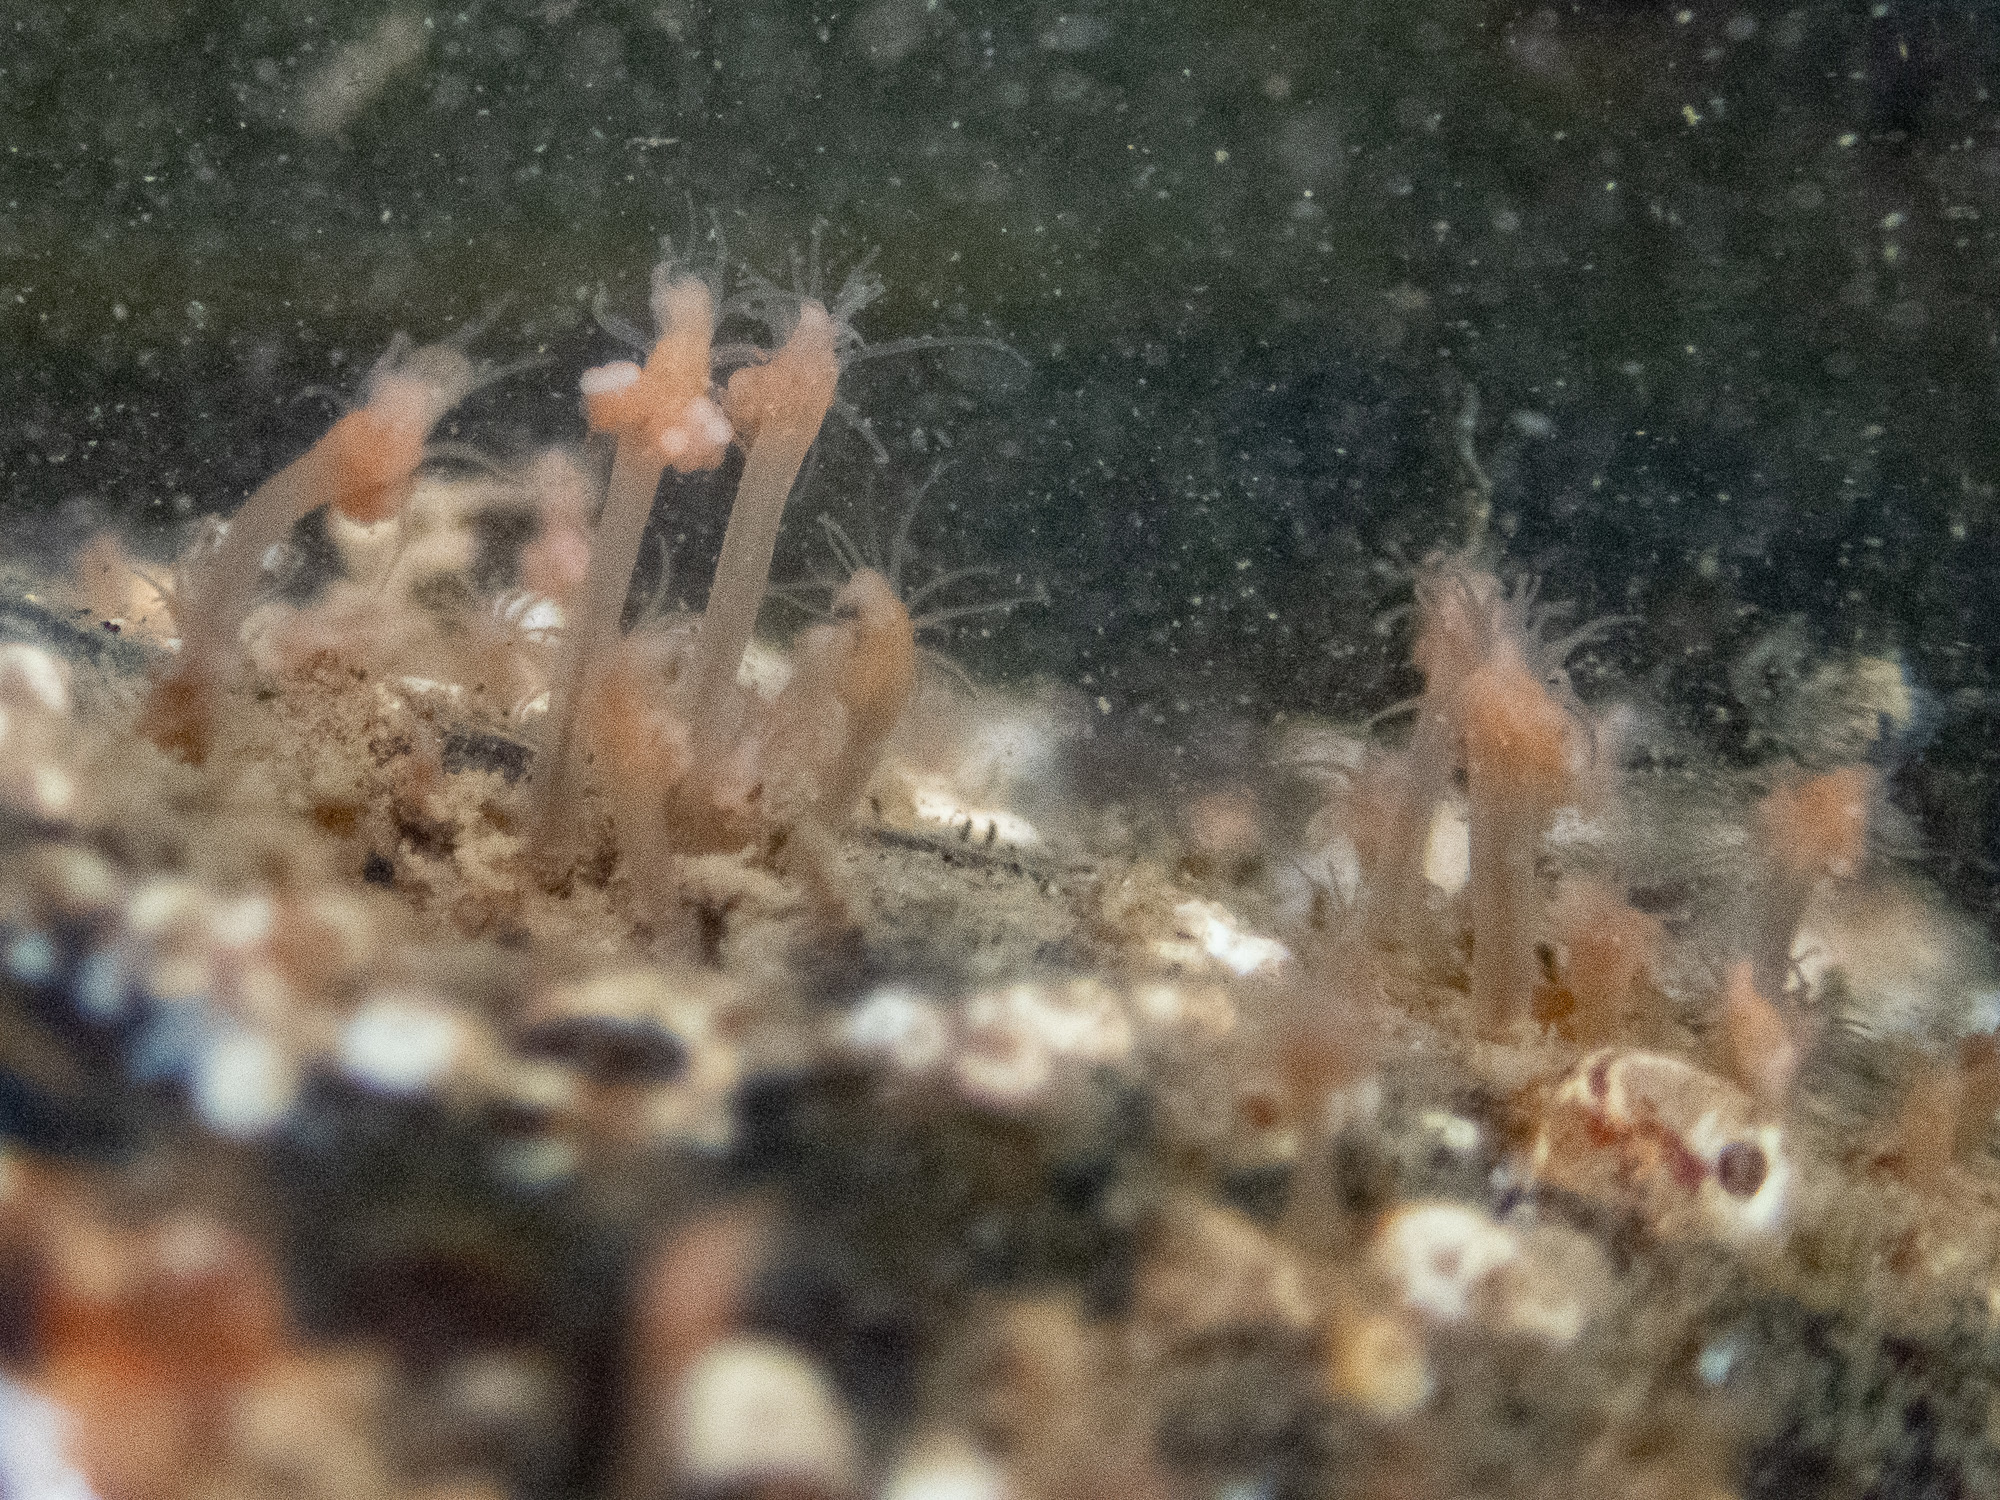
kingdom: Animalia
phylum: Cnidaria
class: Hydrozoa
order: Anthoathecata
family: Hydractiniidae
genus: Clava
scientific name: Clava multicornis
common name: Club-headed hydroid
